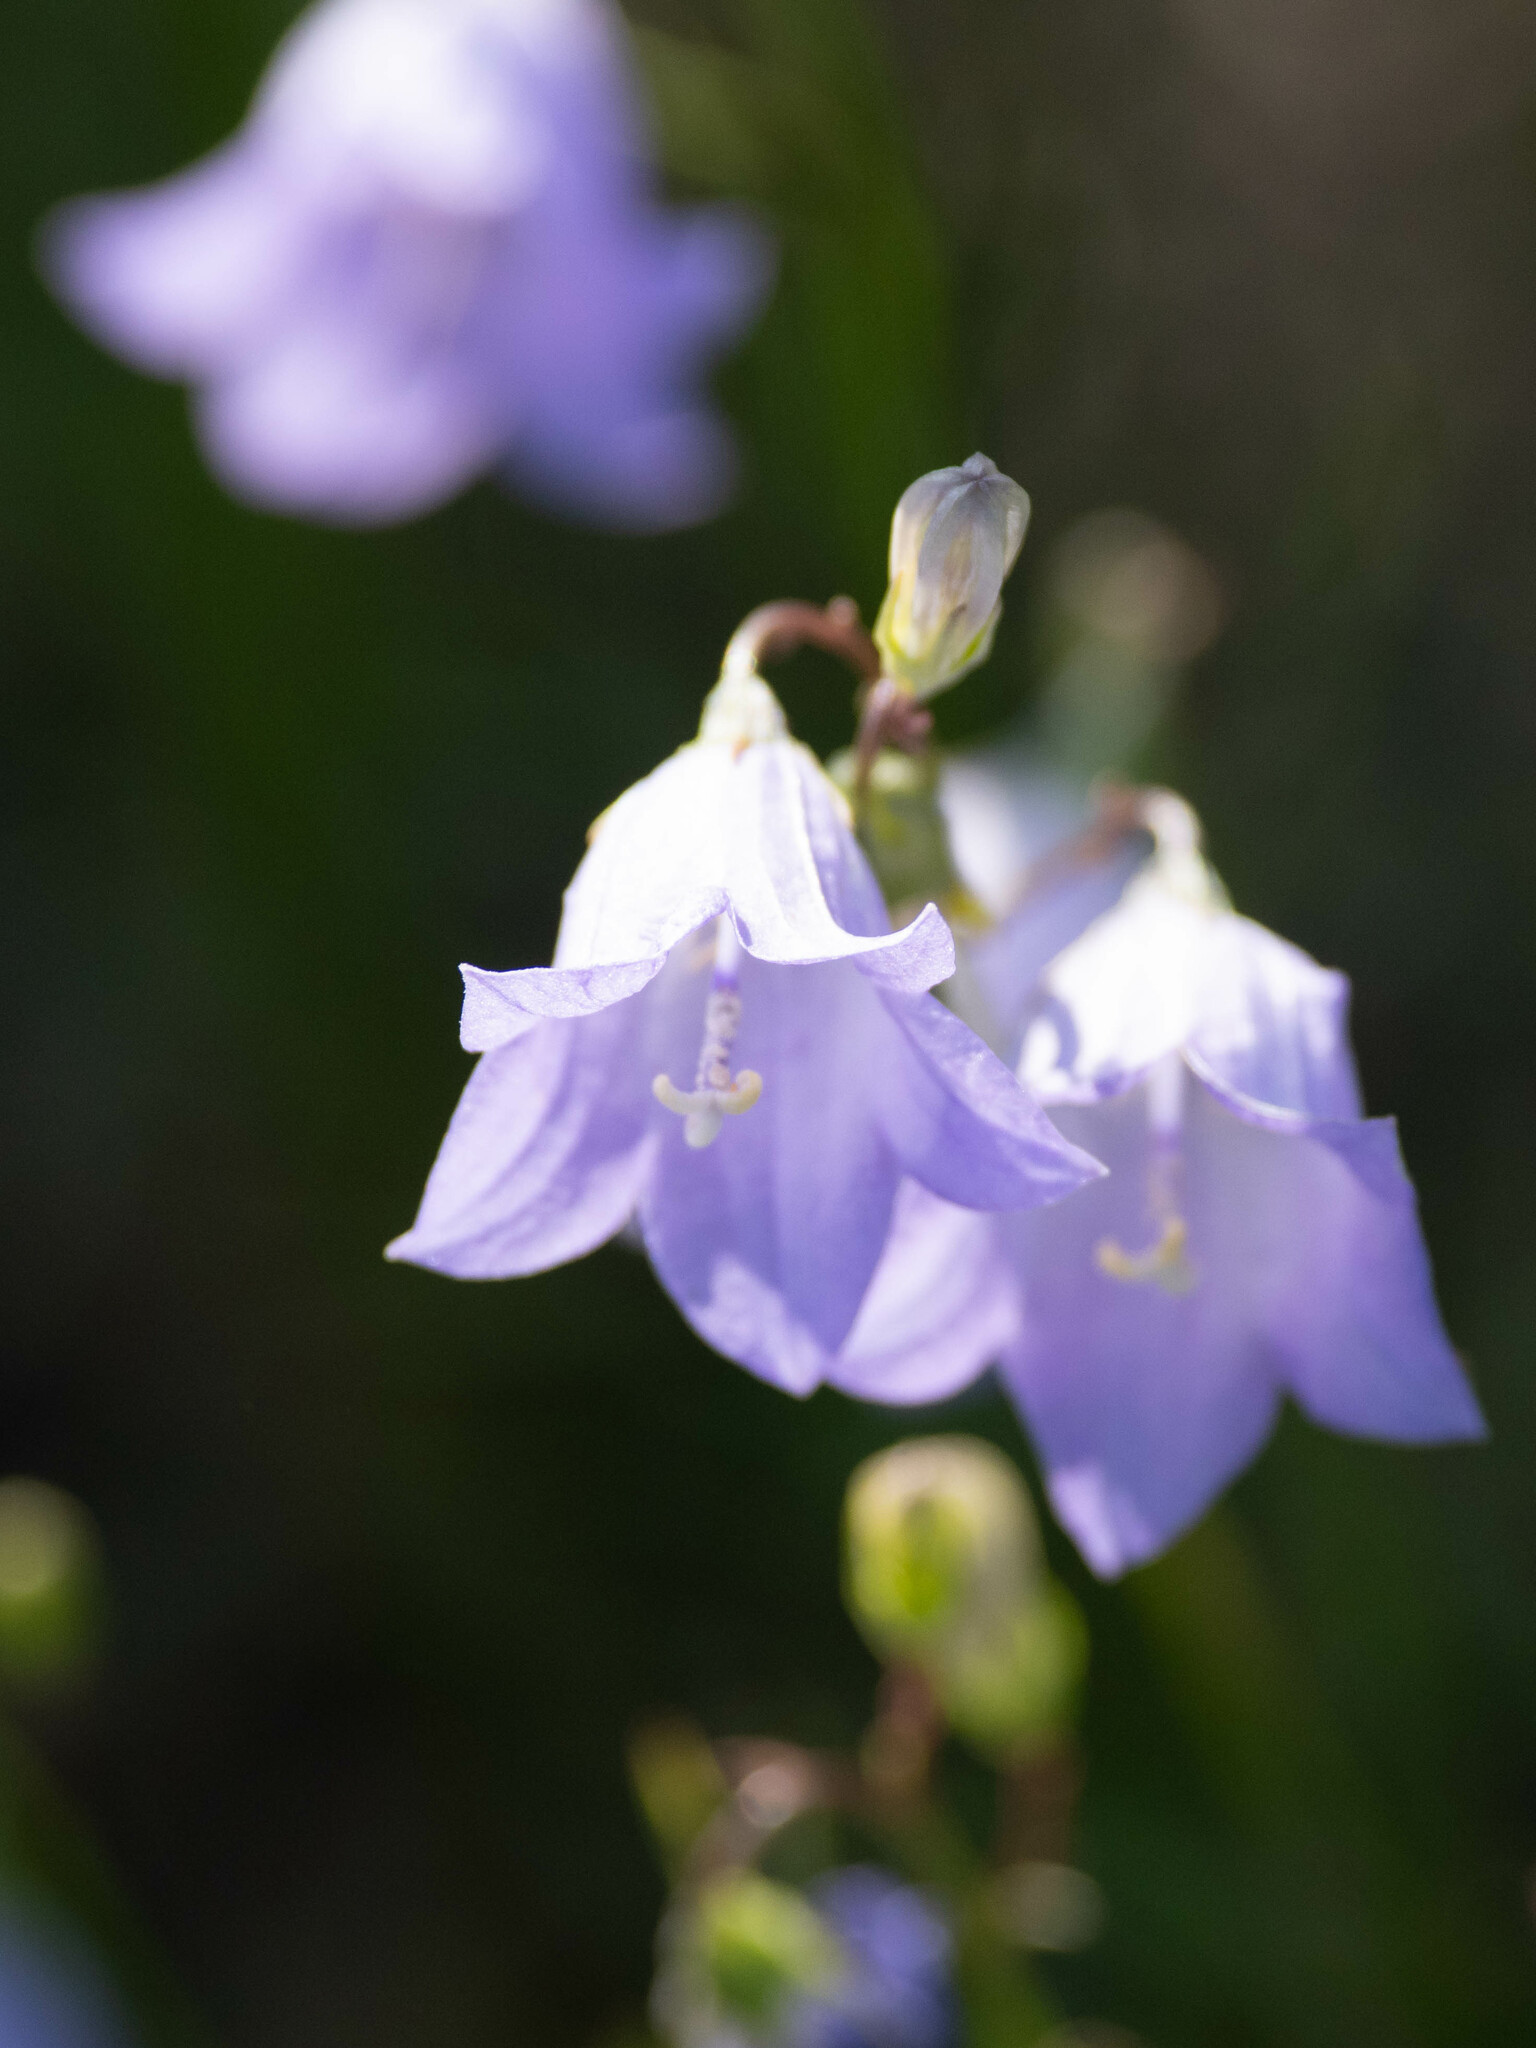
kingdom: Plantae
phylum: Tracheophyta
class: Magnoliopsida
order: Asterales
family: Campanulaceae
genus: Campanula
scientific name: Campanula alaskana
